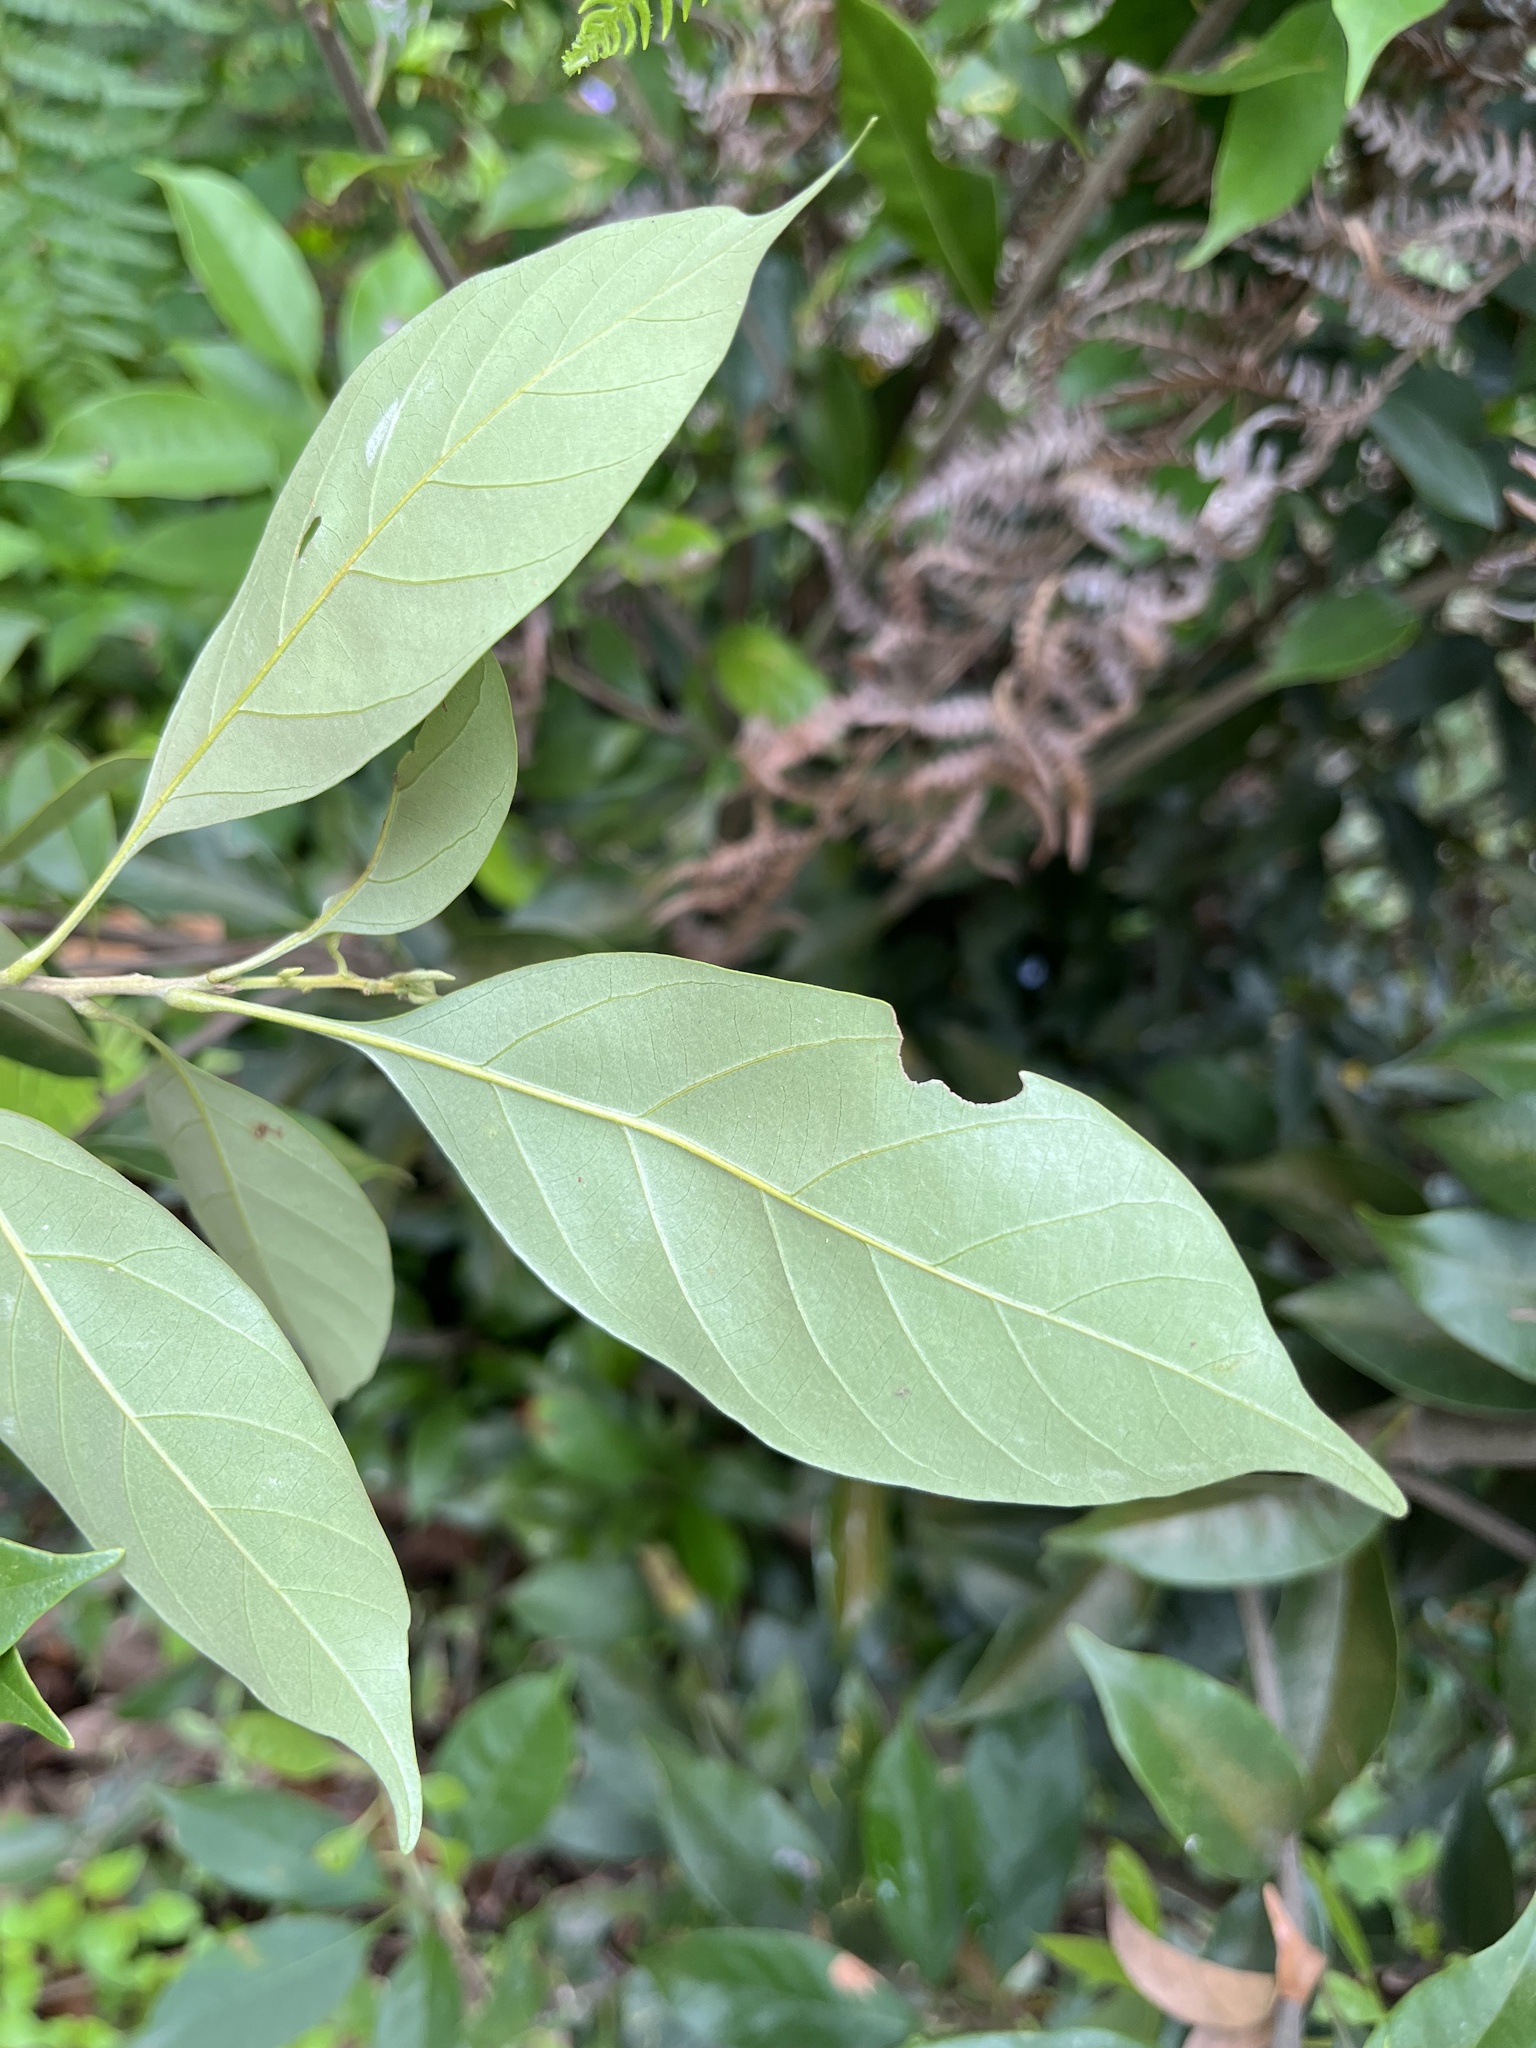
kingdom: Plantae
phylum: Tracheophyta
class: Magnoliopsida
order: Fagales
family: Fagaceae
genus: Lithocarpus
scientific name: Lithocarpus taitoensis
